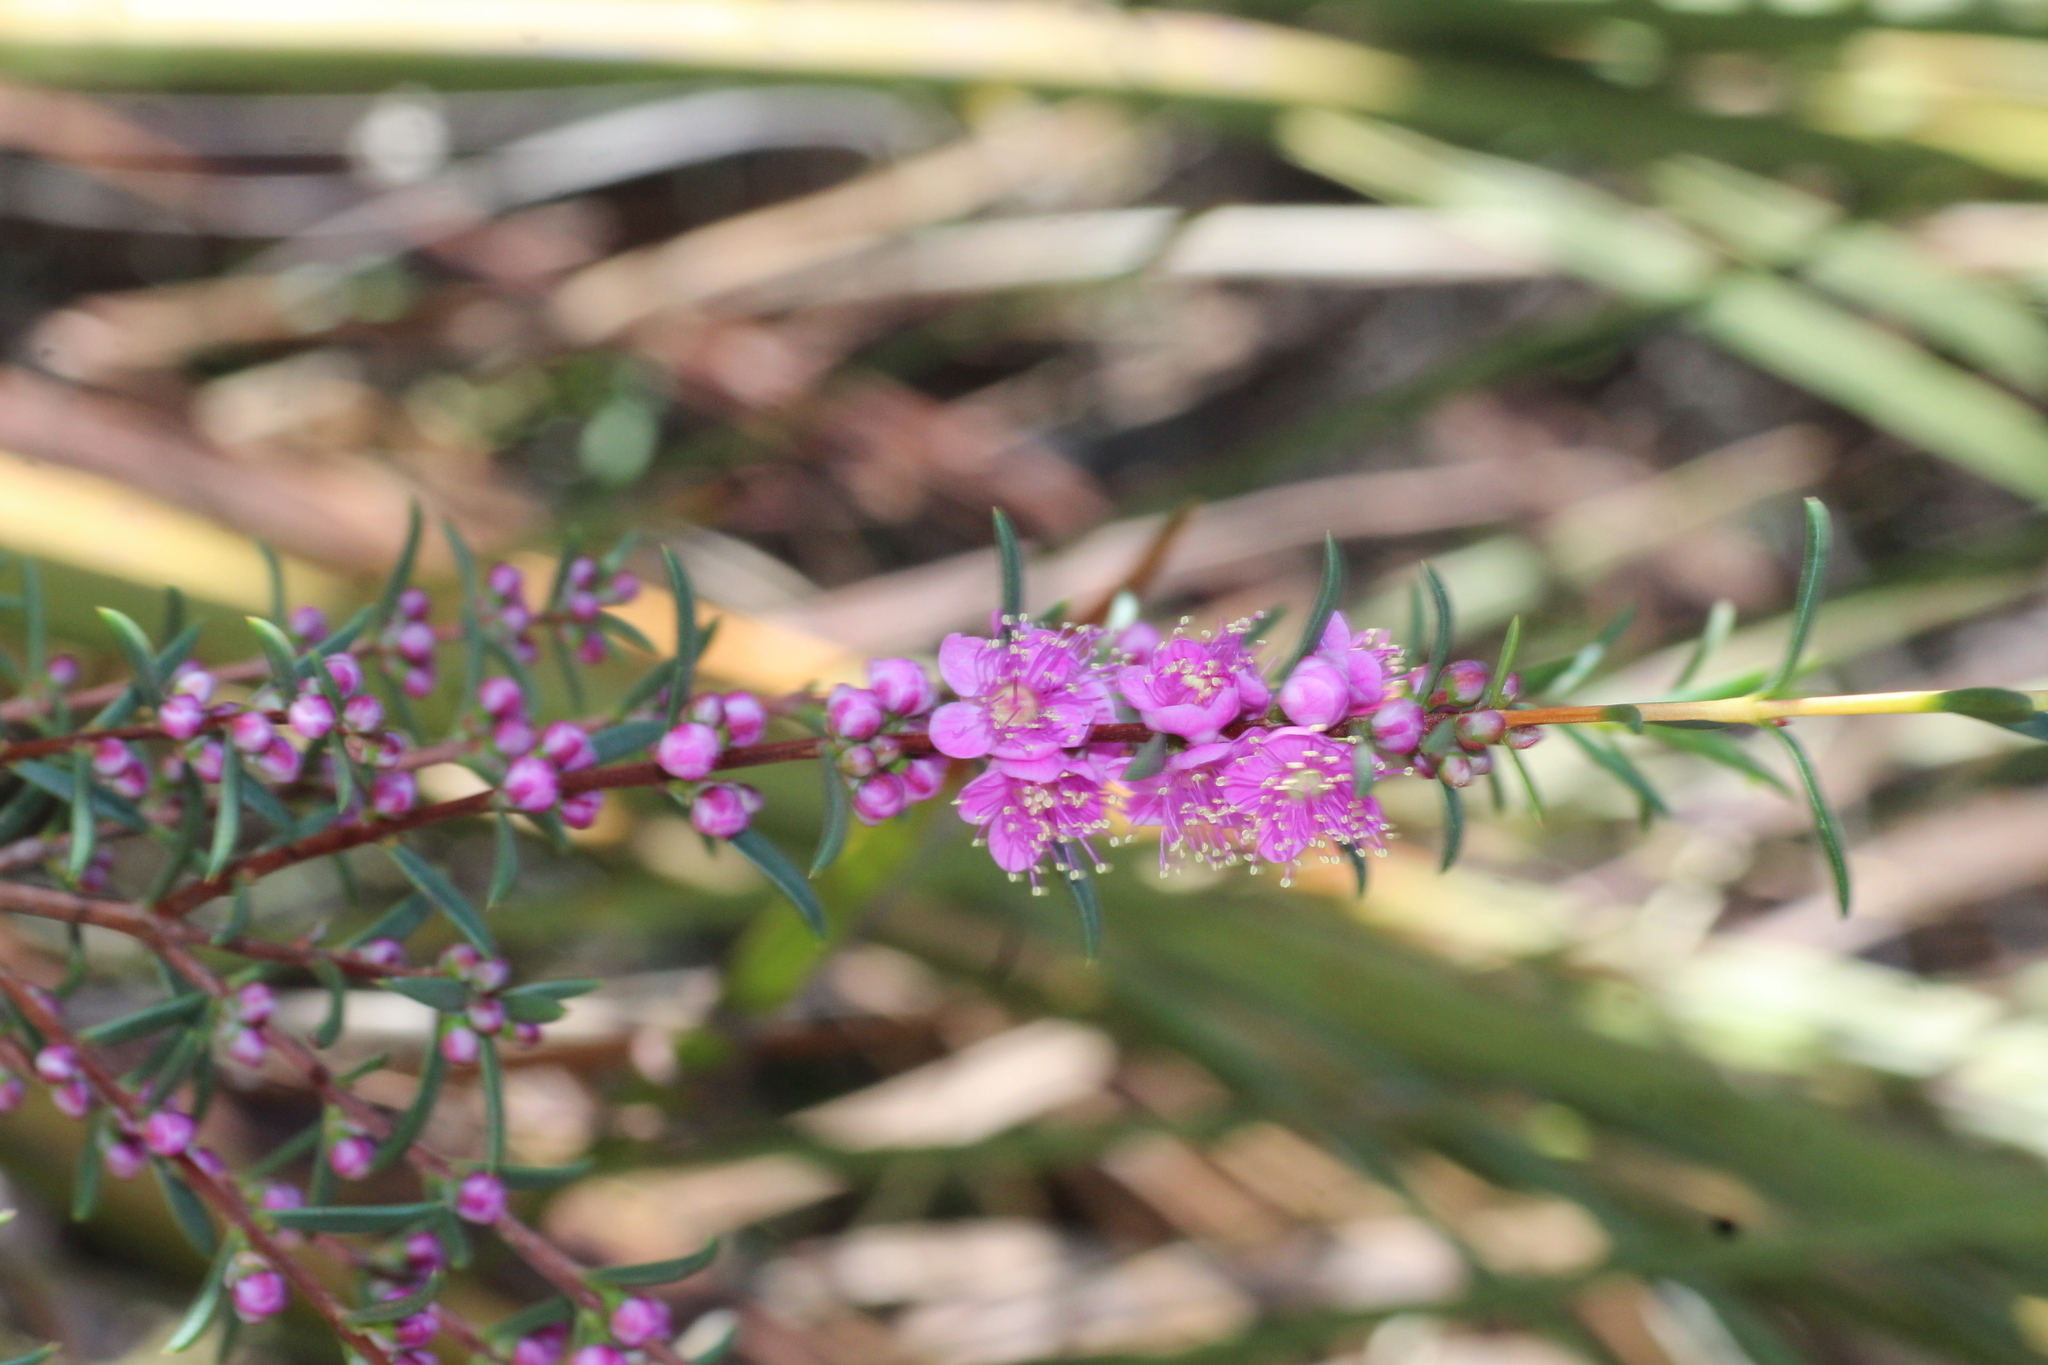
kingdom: Plantae
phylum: Tracheophyta
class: Magnoliopsida
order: Myrtales
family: Myrtaceae
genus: Hypocalymma
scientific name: Hypocalymma robustum
